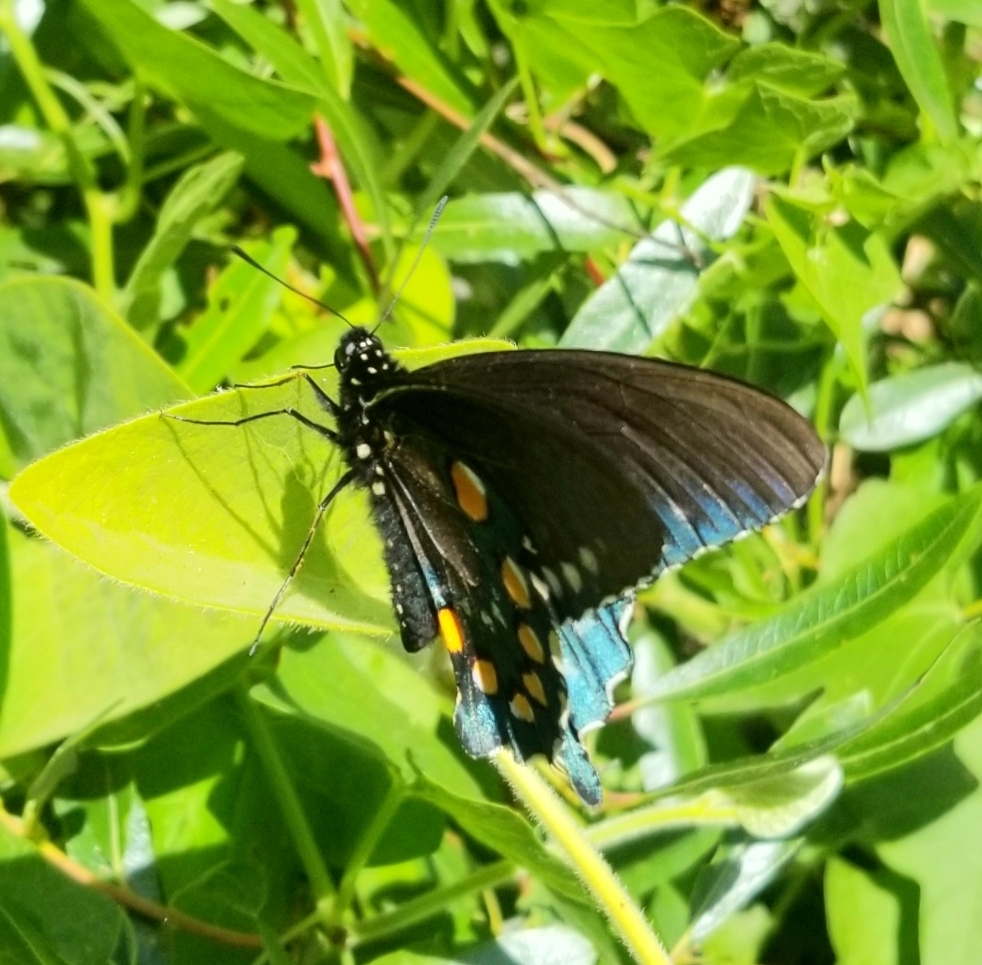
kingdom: Animalia
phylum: Arthropoda
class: Insecta
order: Lepidoptera
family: Papilionidae
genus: Battus
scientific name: Battus philenor
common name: Pipevine swallowtail
